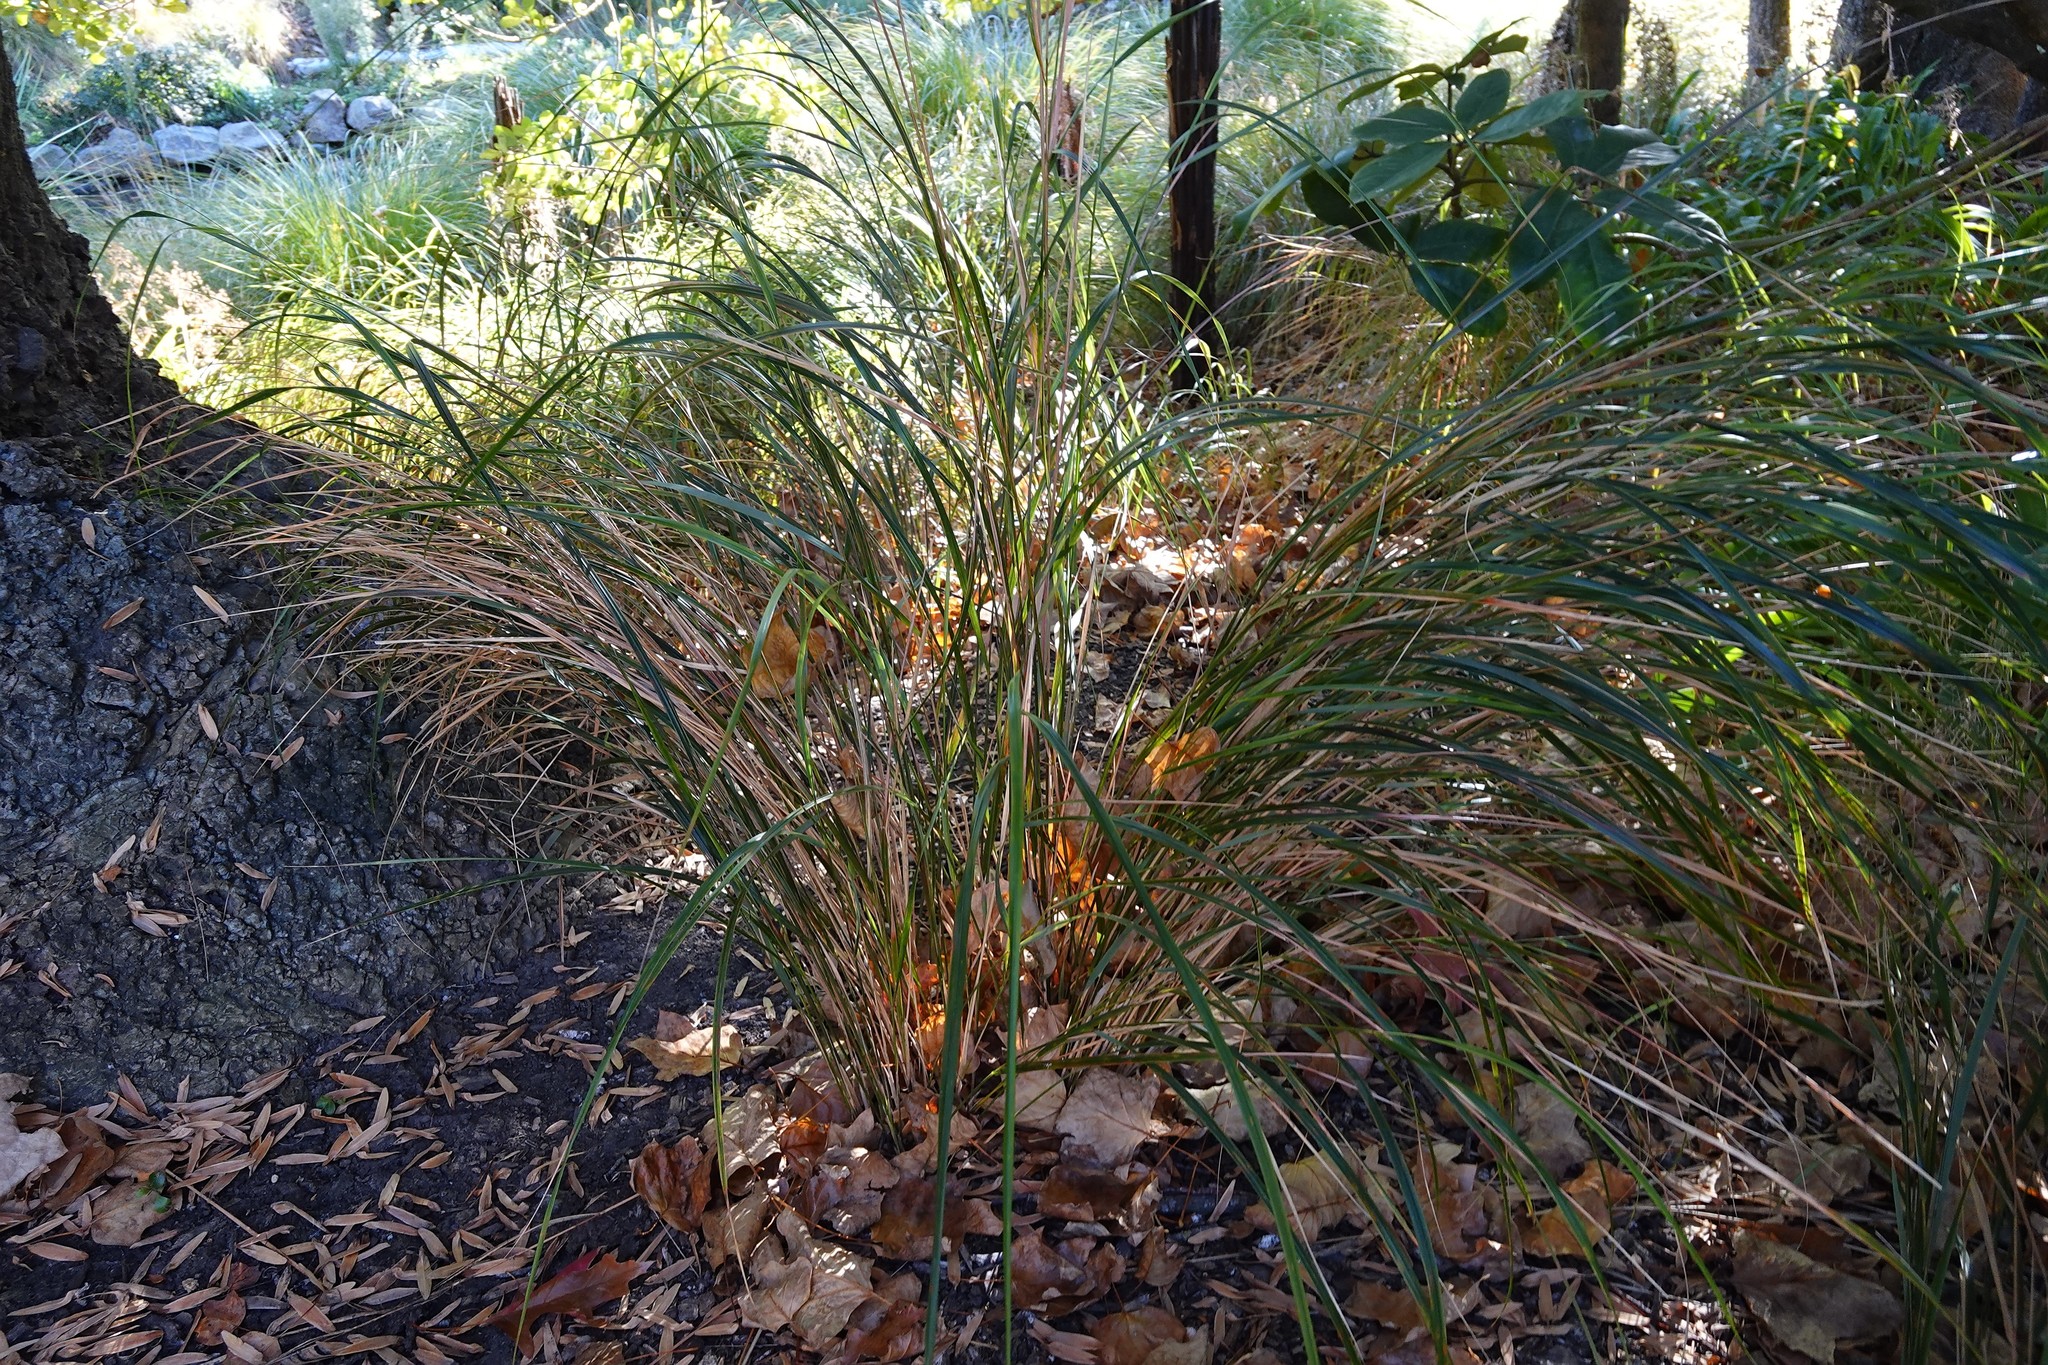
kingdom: Plantae
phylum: Tracheophyta
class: Liliopsida
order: Poales
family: Poaceae
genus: Anemanthele
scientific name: Anemanthele lessoniana
